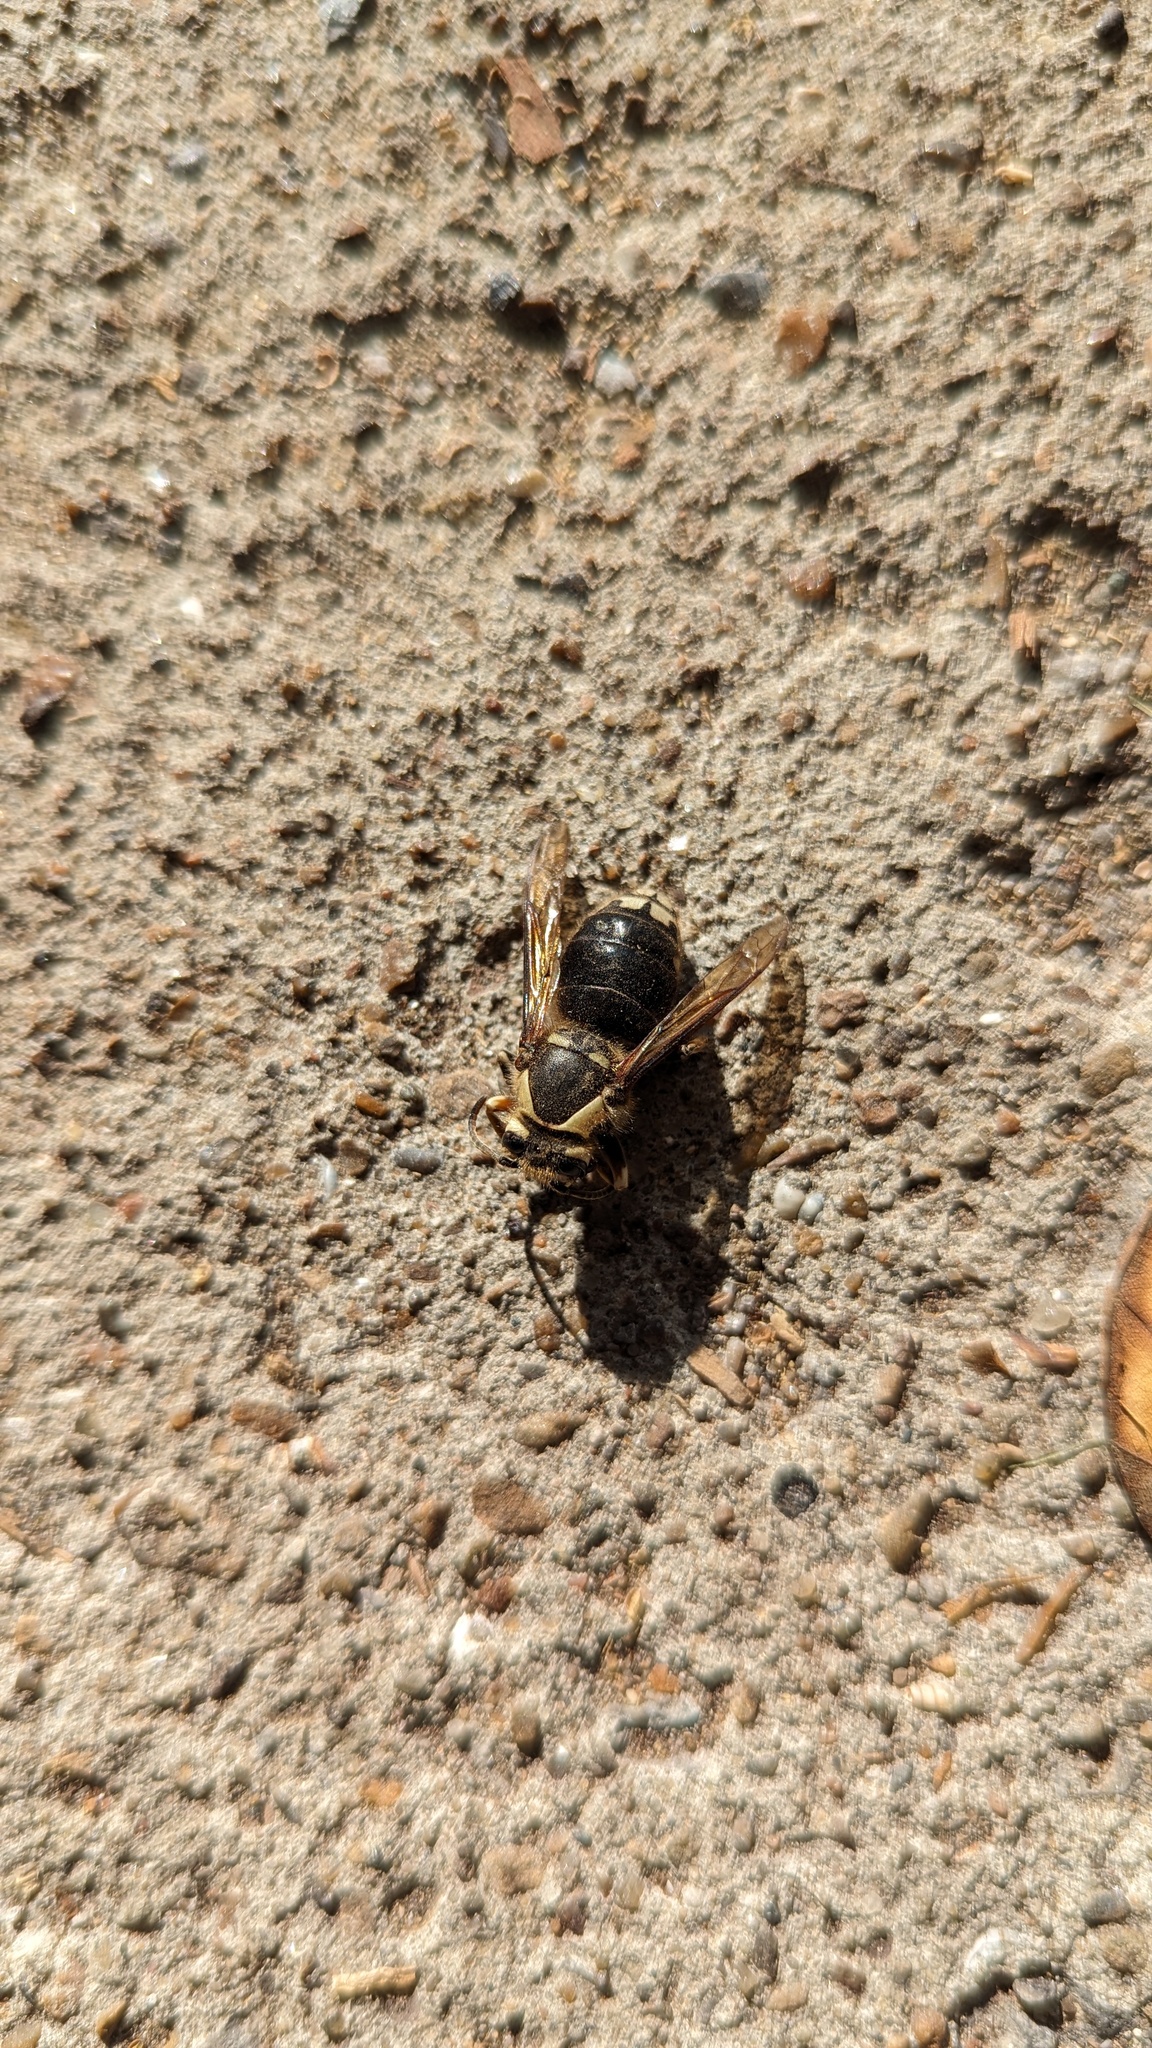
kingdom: Animalia
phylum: Arthropoda
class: Insecta
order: Hymenoptera
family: Vespidae
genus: Dolichovespula
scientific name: Dolichovespula maculata
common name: Bald-faced hornet
